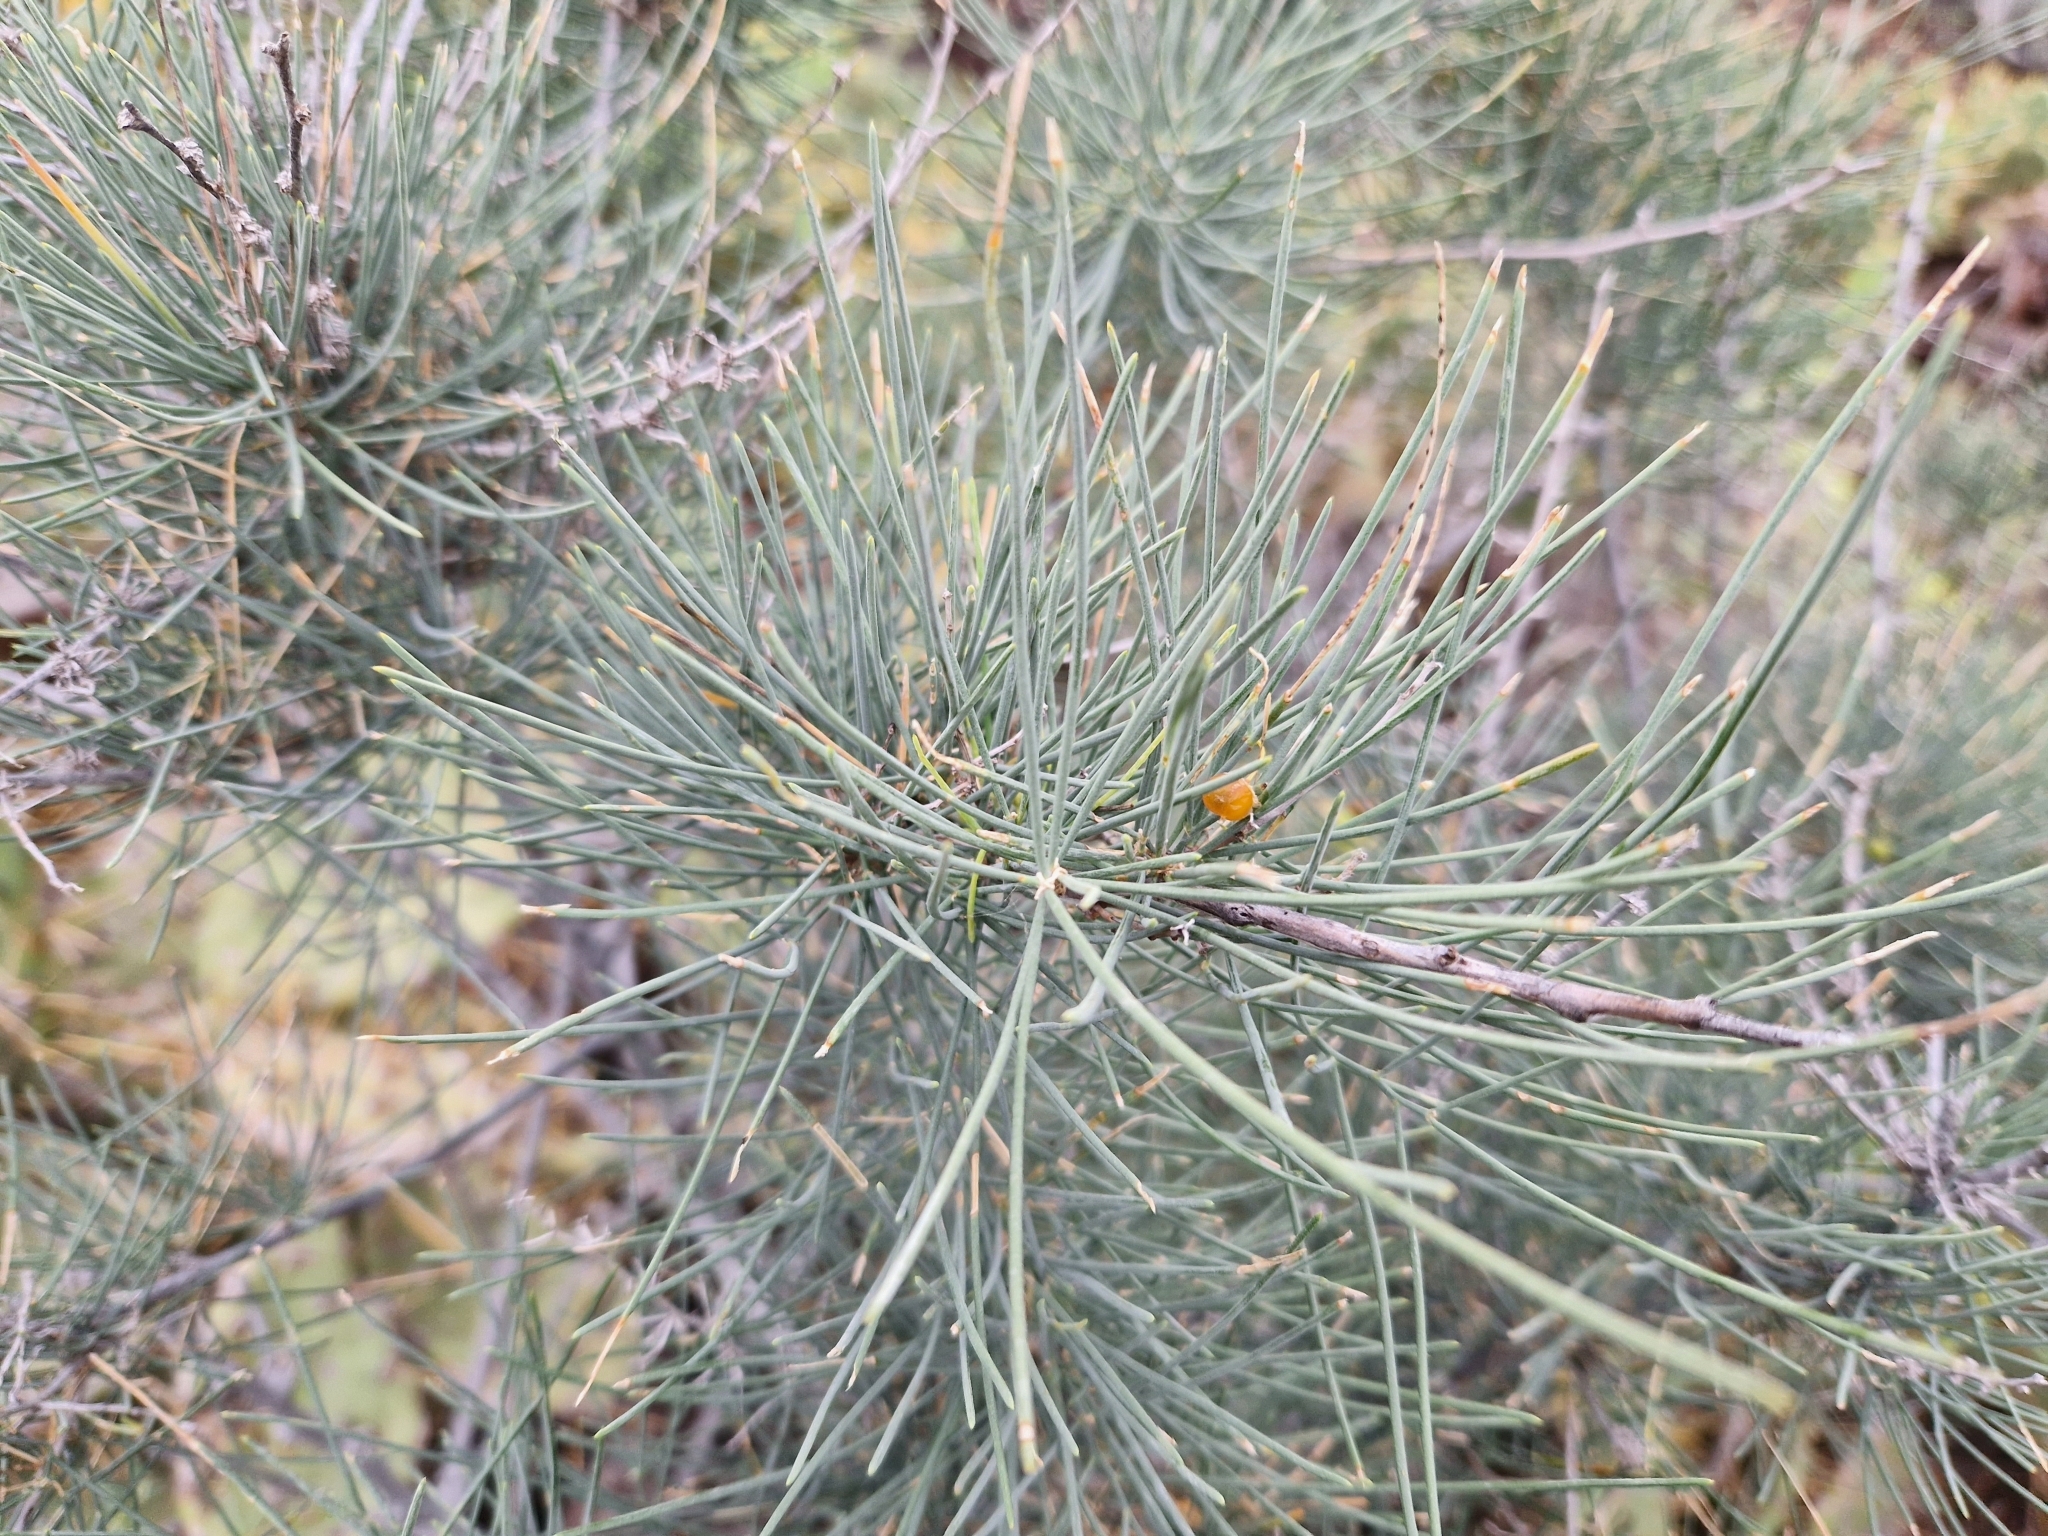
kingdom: Plantae
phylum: Tracheophyta
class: Liliopsida
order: Asparagales
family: Asparagaceae
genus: Asparagus
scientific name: Asparagus arborescens
